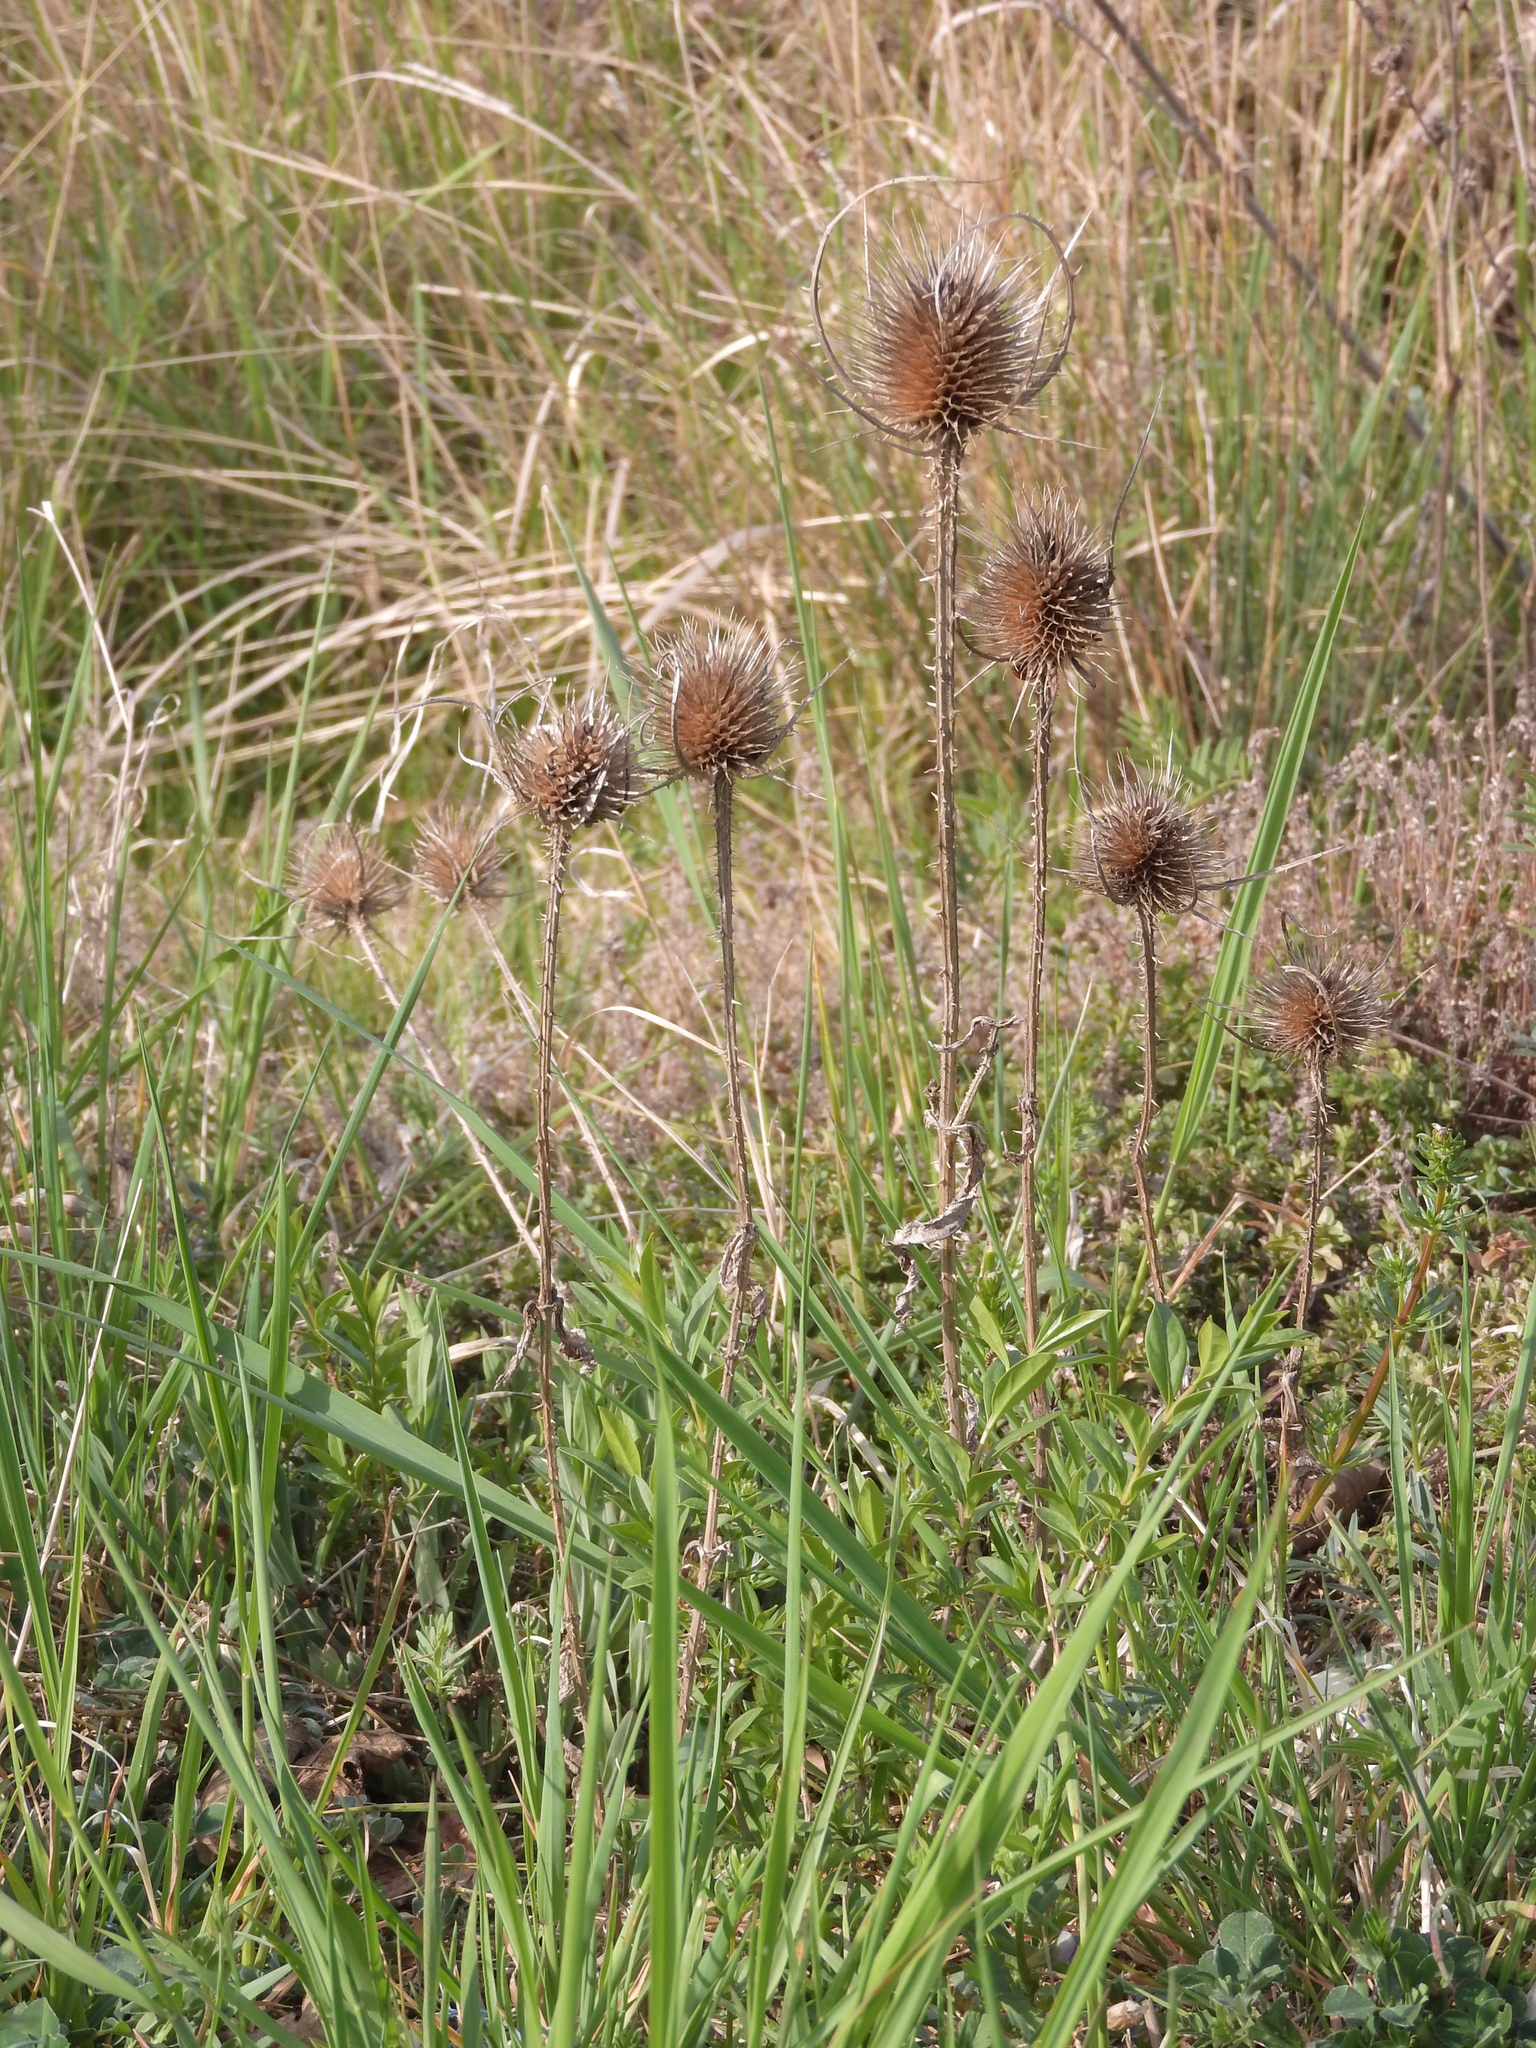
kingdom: Plantae
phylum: Tracheophyta
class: Magnoliopsida
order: Dipsacales
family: Caprifoliaceae
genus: Dipsacus
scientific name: Dipsacus fullonum
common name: Teasel
